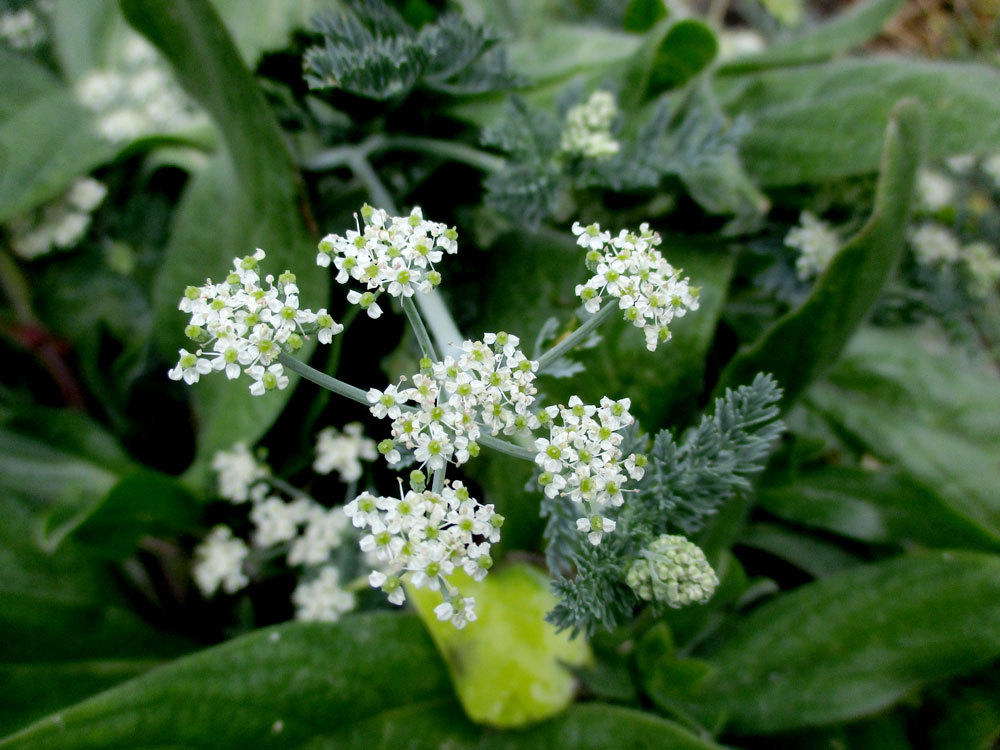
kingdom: Plantae
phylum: Tracheophyta
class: Magnoliopsida
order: Apiales
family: Apiaceae
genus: Capnophyllum
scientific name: Capnophyllum africanum
